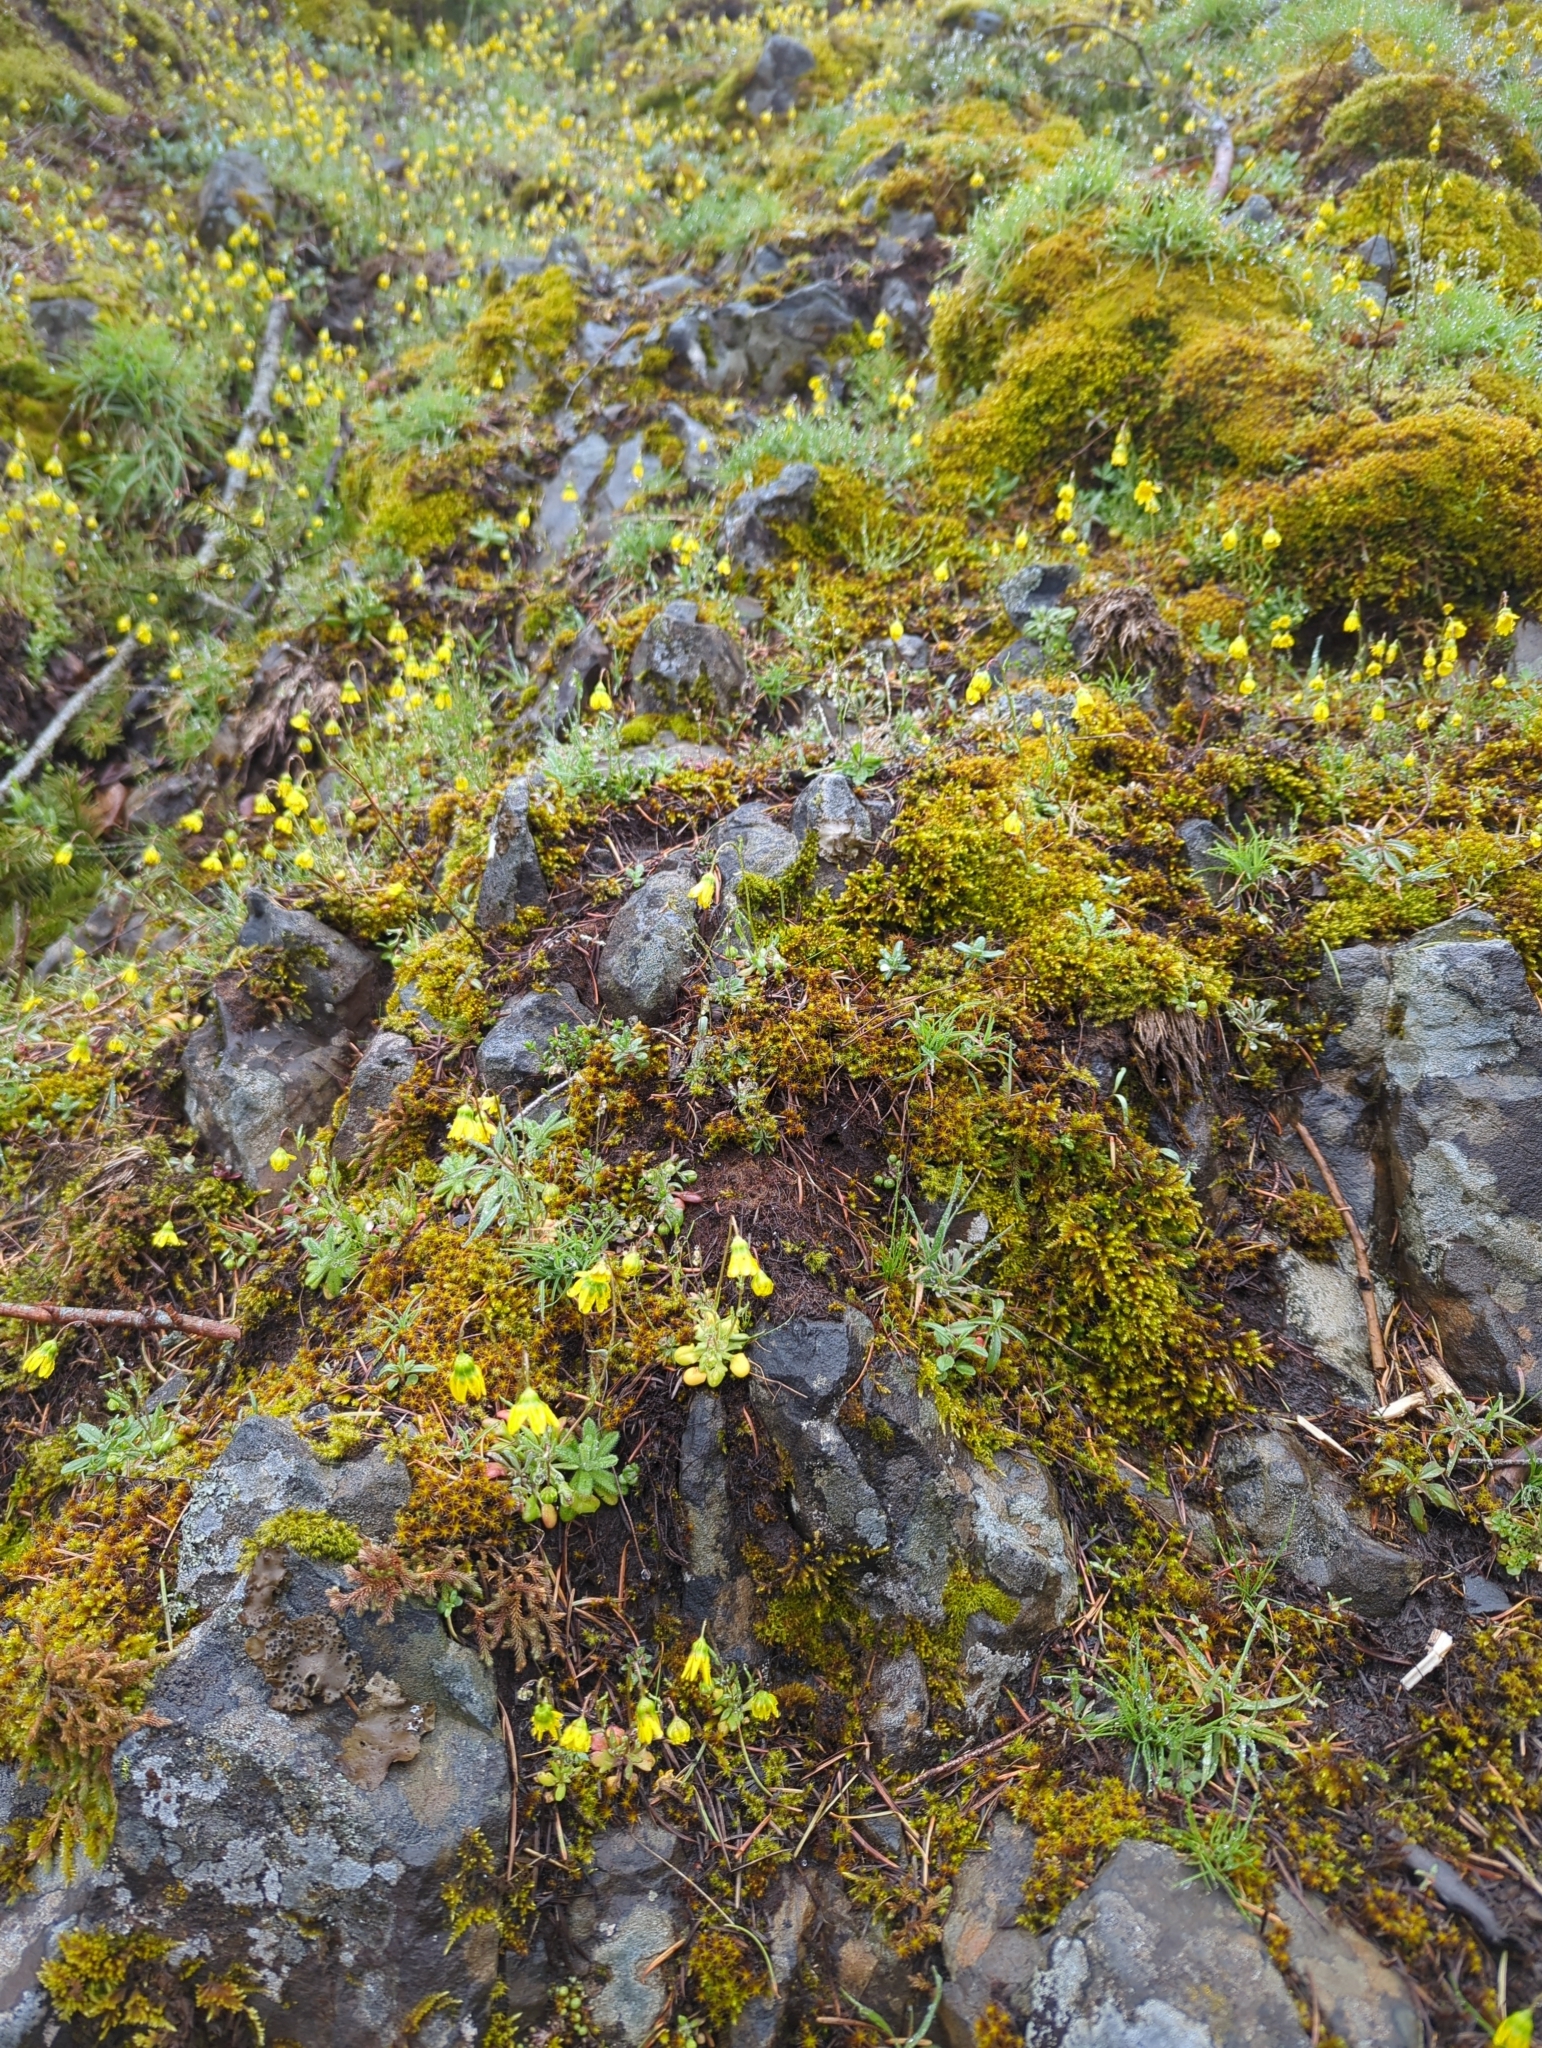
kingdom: Plantae
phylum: Tracheophyta
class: Magnoliopsida
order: Asterales
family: Asteraceae
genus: Crocidium
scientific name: Crocidium multicaule
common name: Common spring gold
